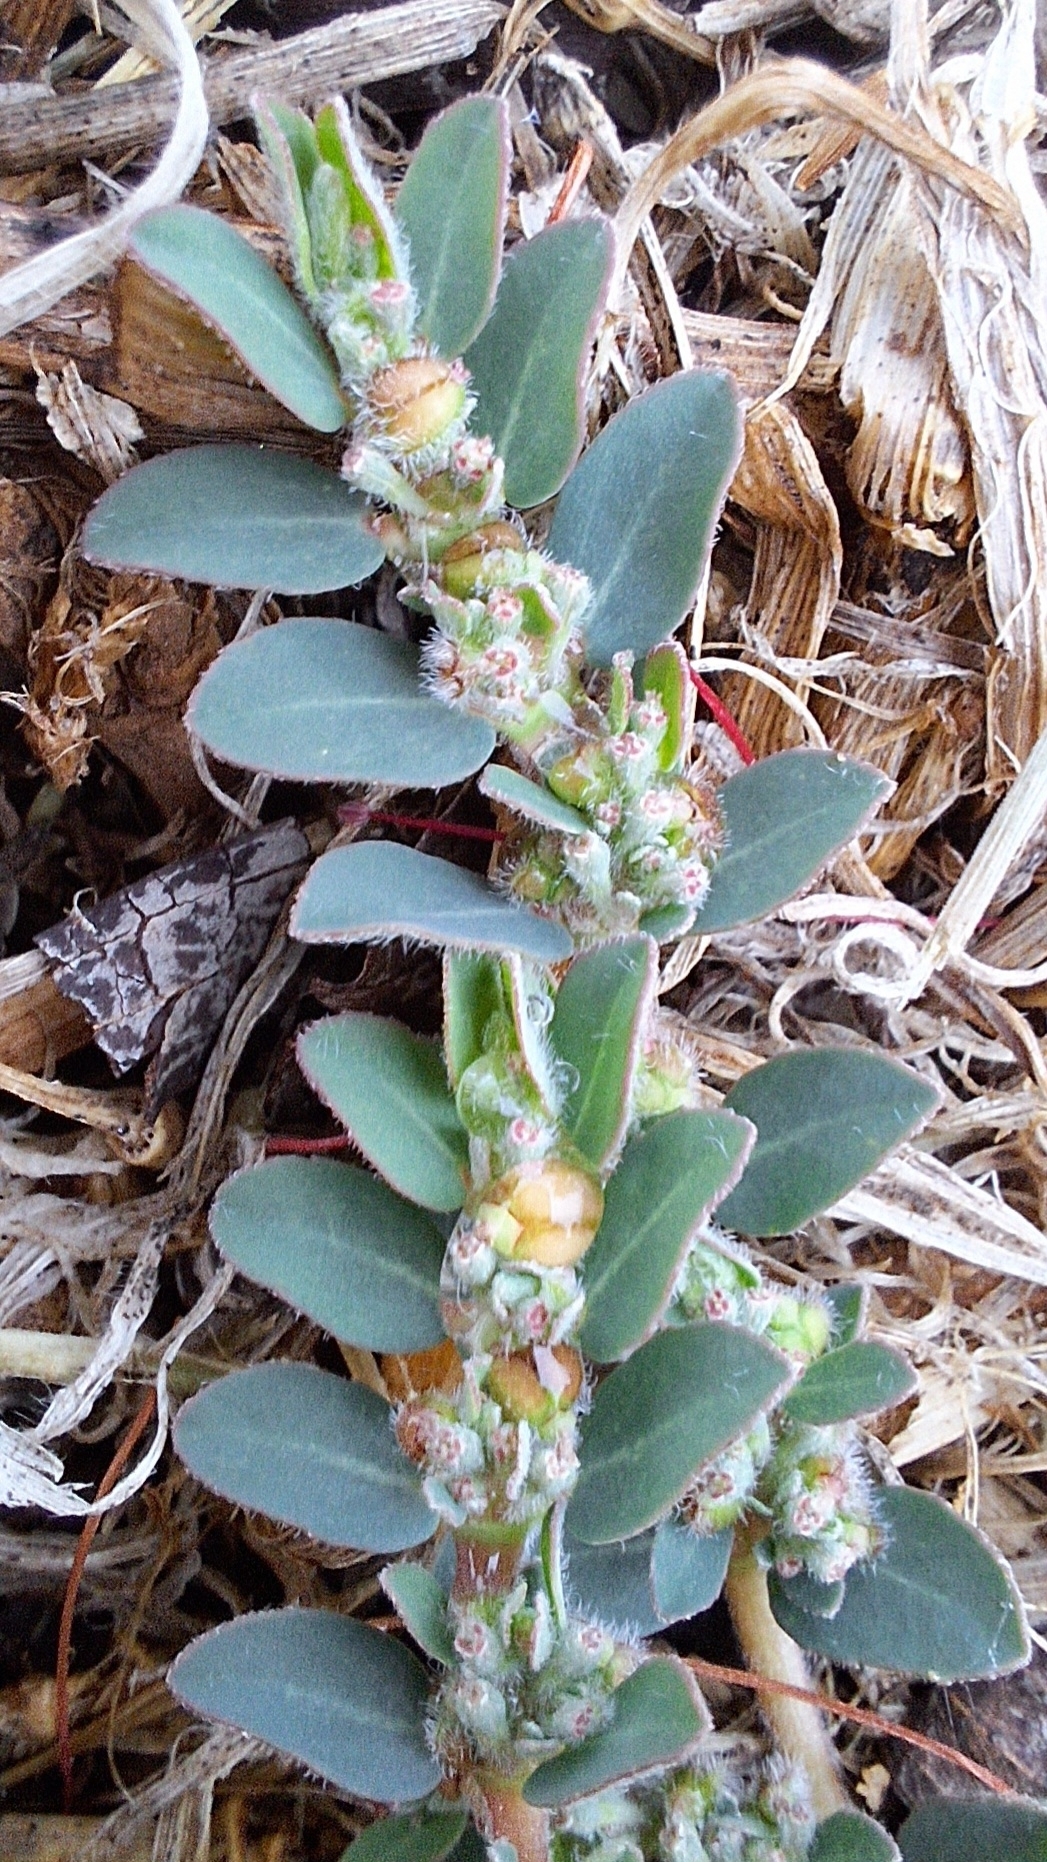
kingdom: Plantae
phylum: Tracheophyta
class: Magnoliopsida
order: Malpighiales
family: Euphorbiaceae
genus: Euphorbia
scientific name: Euphorbia prostrata
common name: Prostrate sandmat
